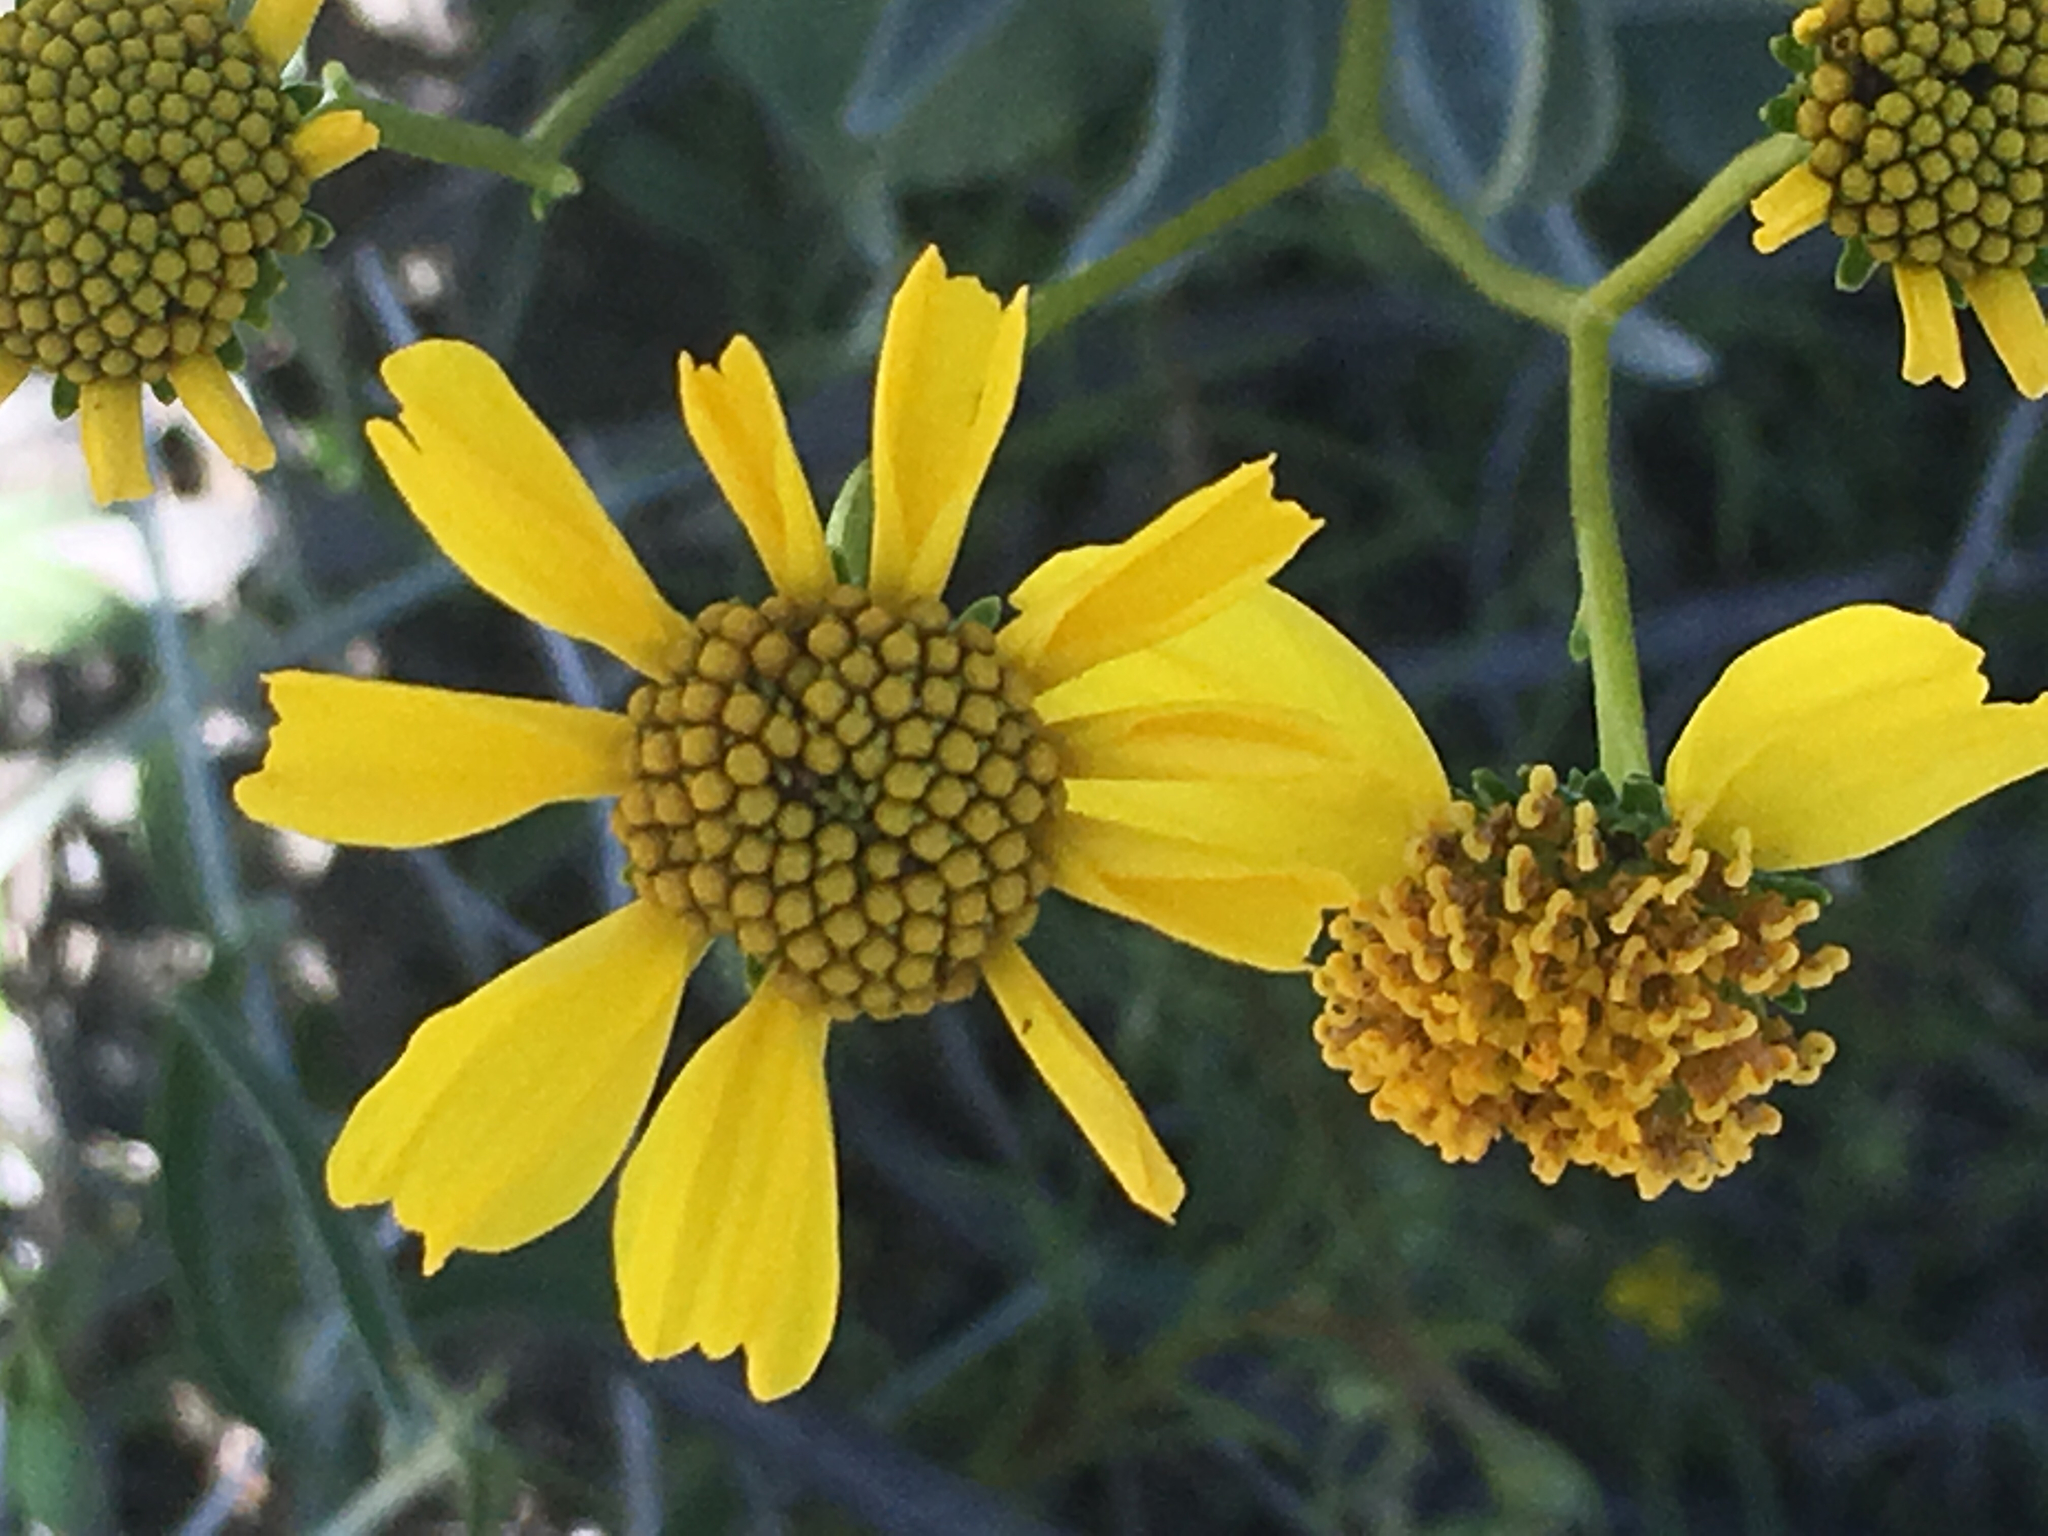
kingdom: Plantae
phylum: Tracheophyta
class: Magnoliopsida
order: Asterales
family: Asteraceae
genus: Encelia
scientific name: Encelia farinosa
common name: Brittlebush
